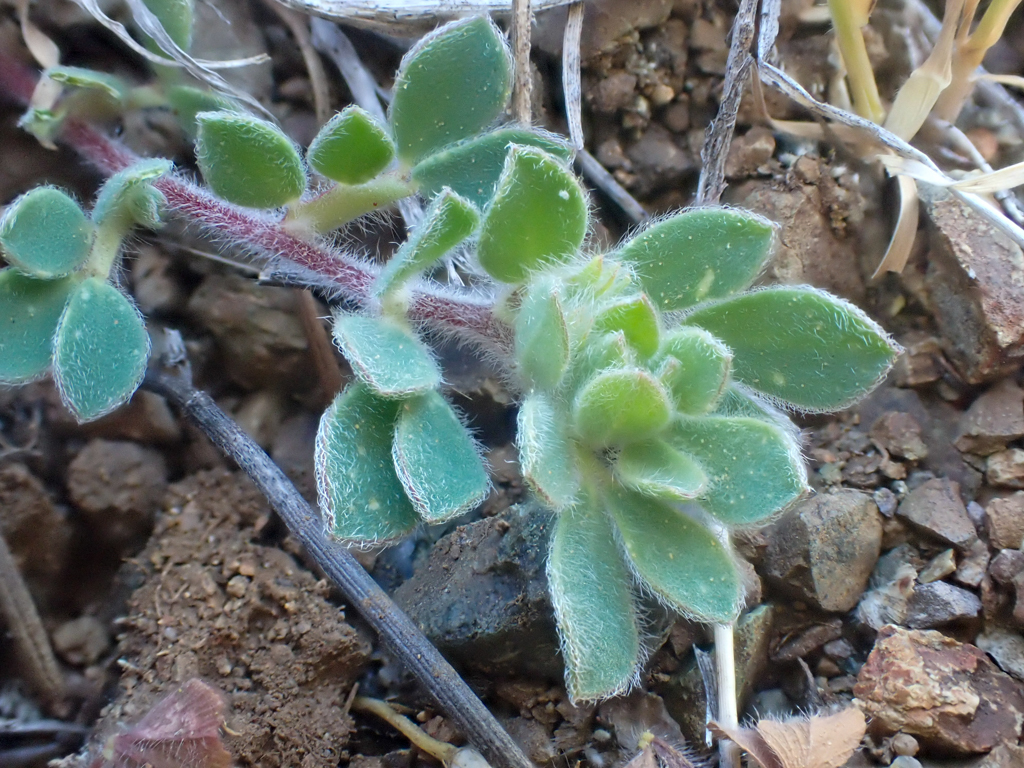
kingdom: Plantae
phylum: Tracheophyta
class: Magnoliopsida
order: Fabales
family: Fabaceae
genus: Acmispon
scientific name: Acmispon brachycarpus
